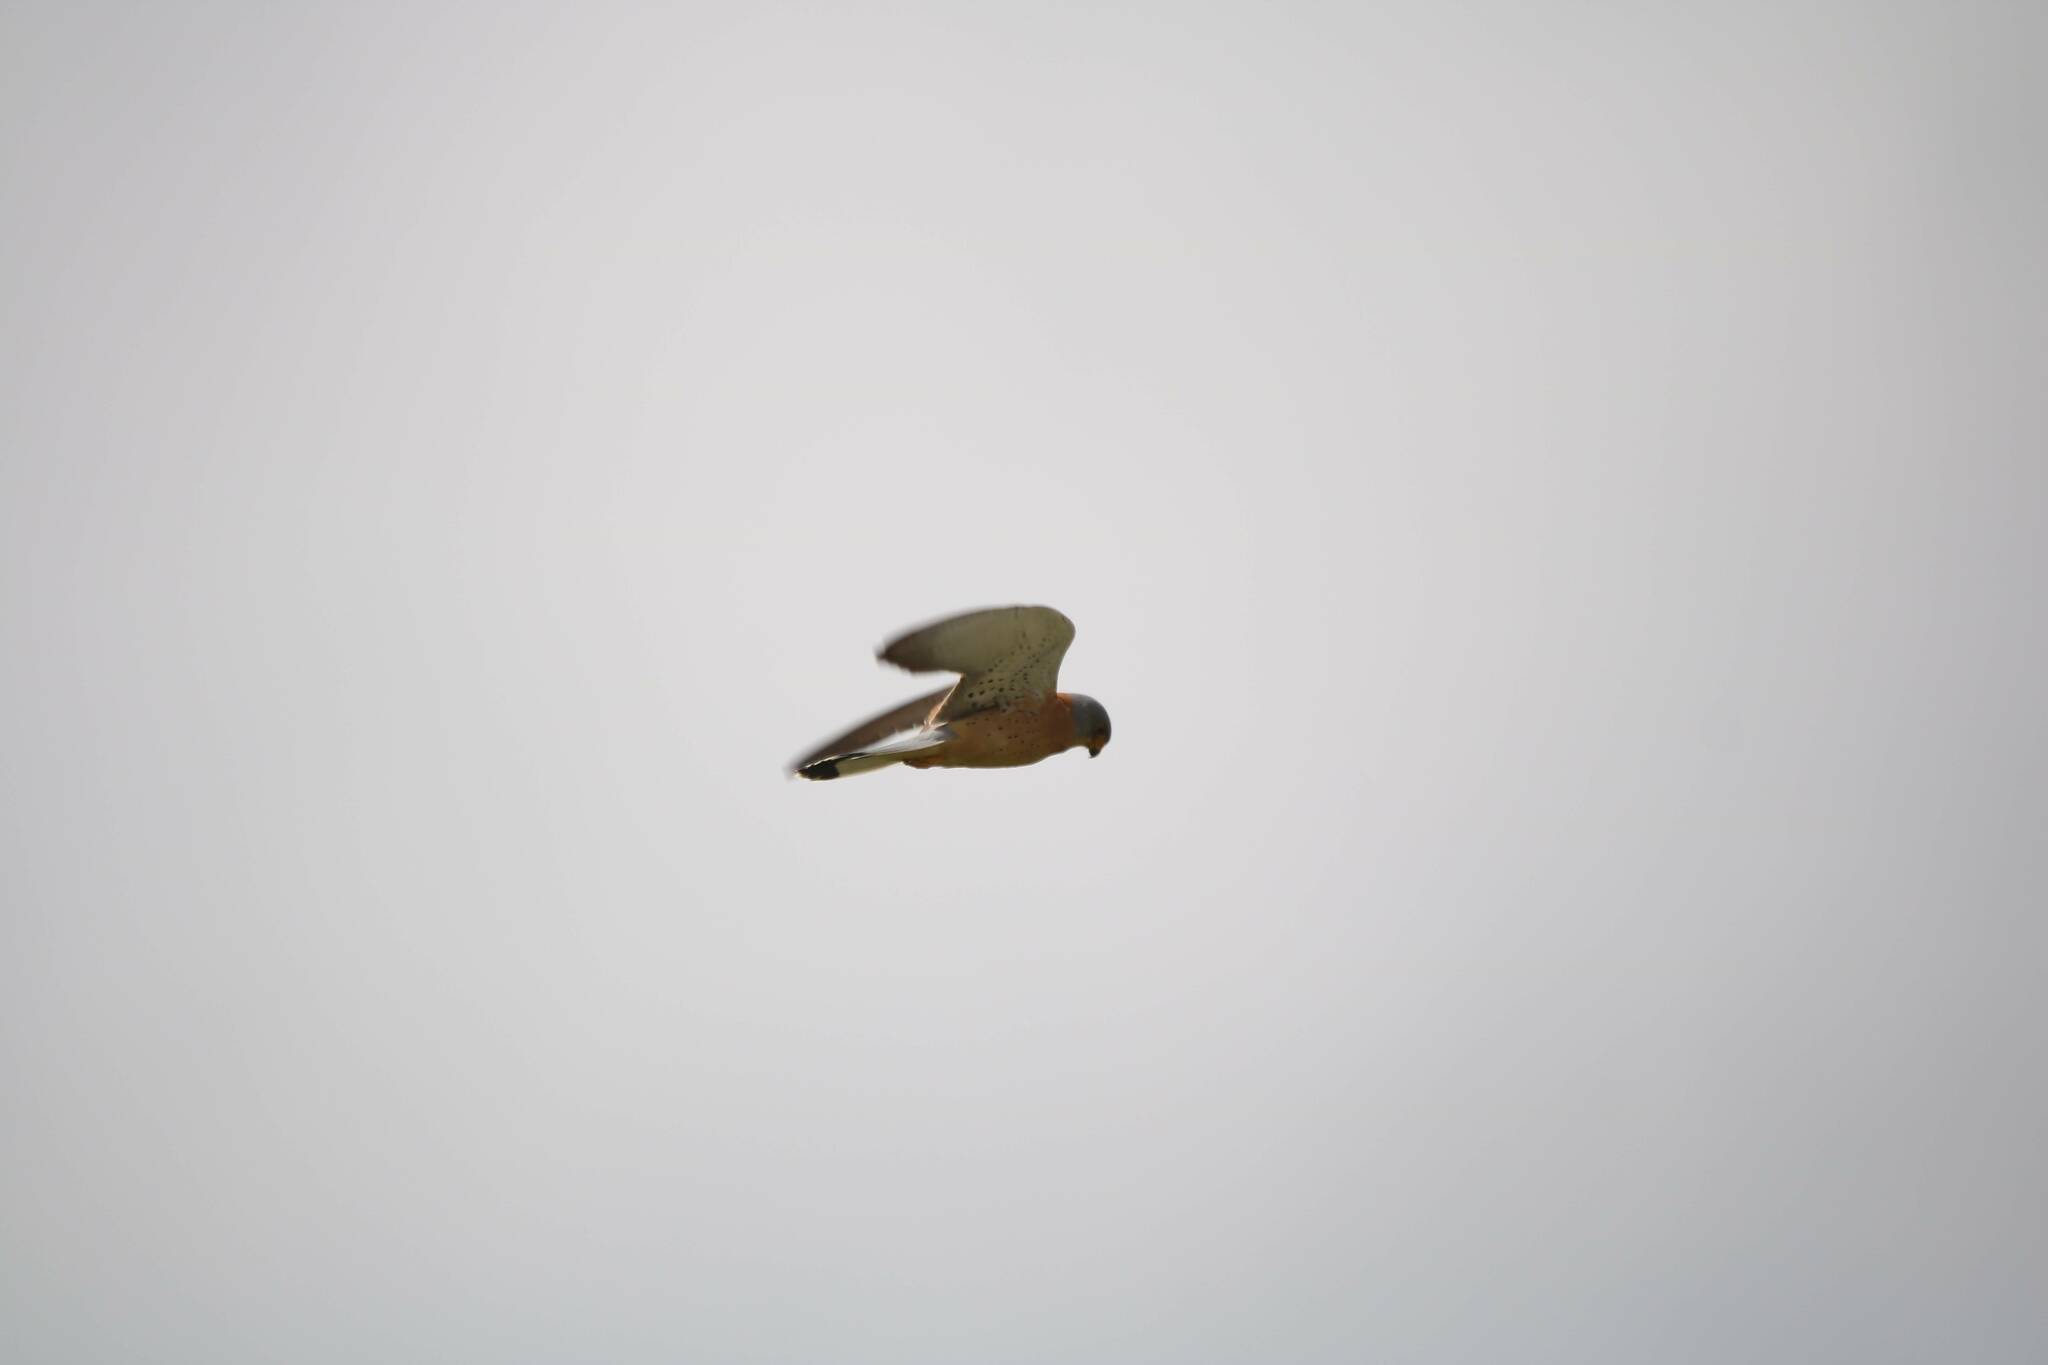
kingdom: Animalia
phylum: Chordata
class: Aves
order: Falconiformes
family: Falconidae
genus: Falco
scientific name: Falco naumanni
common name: Lesser kestrel
